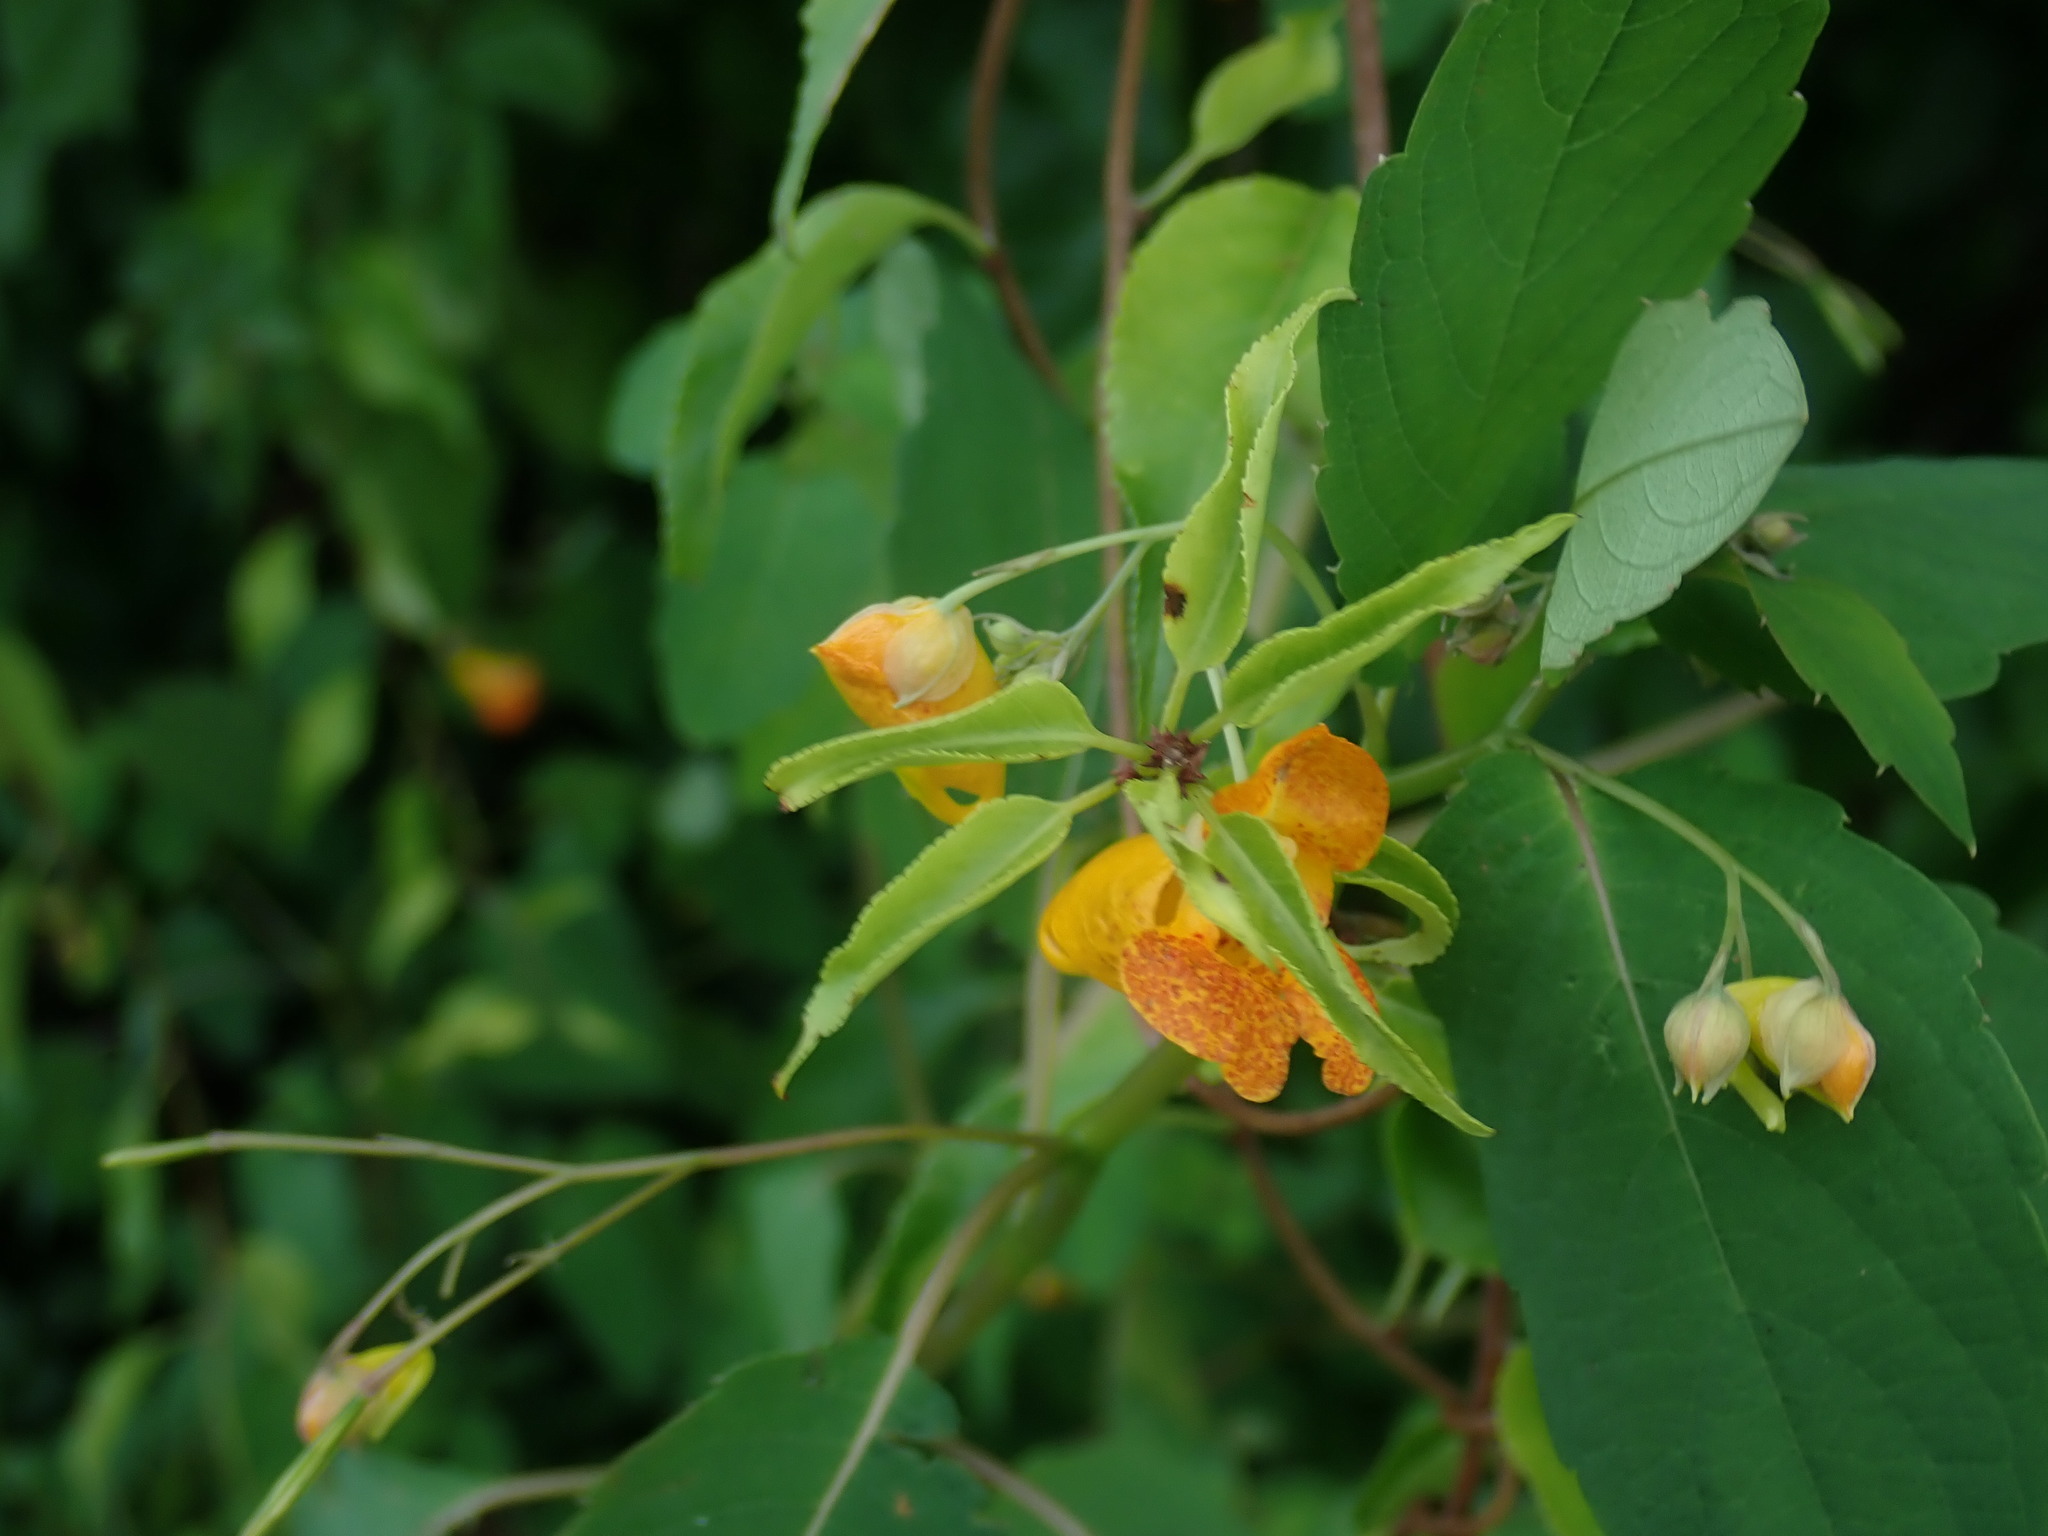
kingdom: Plantae
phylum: Tracheophyta
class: Magnoliopsida
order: Ericales
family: Balsaminaceae
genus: Impatiens
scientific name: Impatiens capensis
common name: Orange balsam
